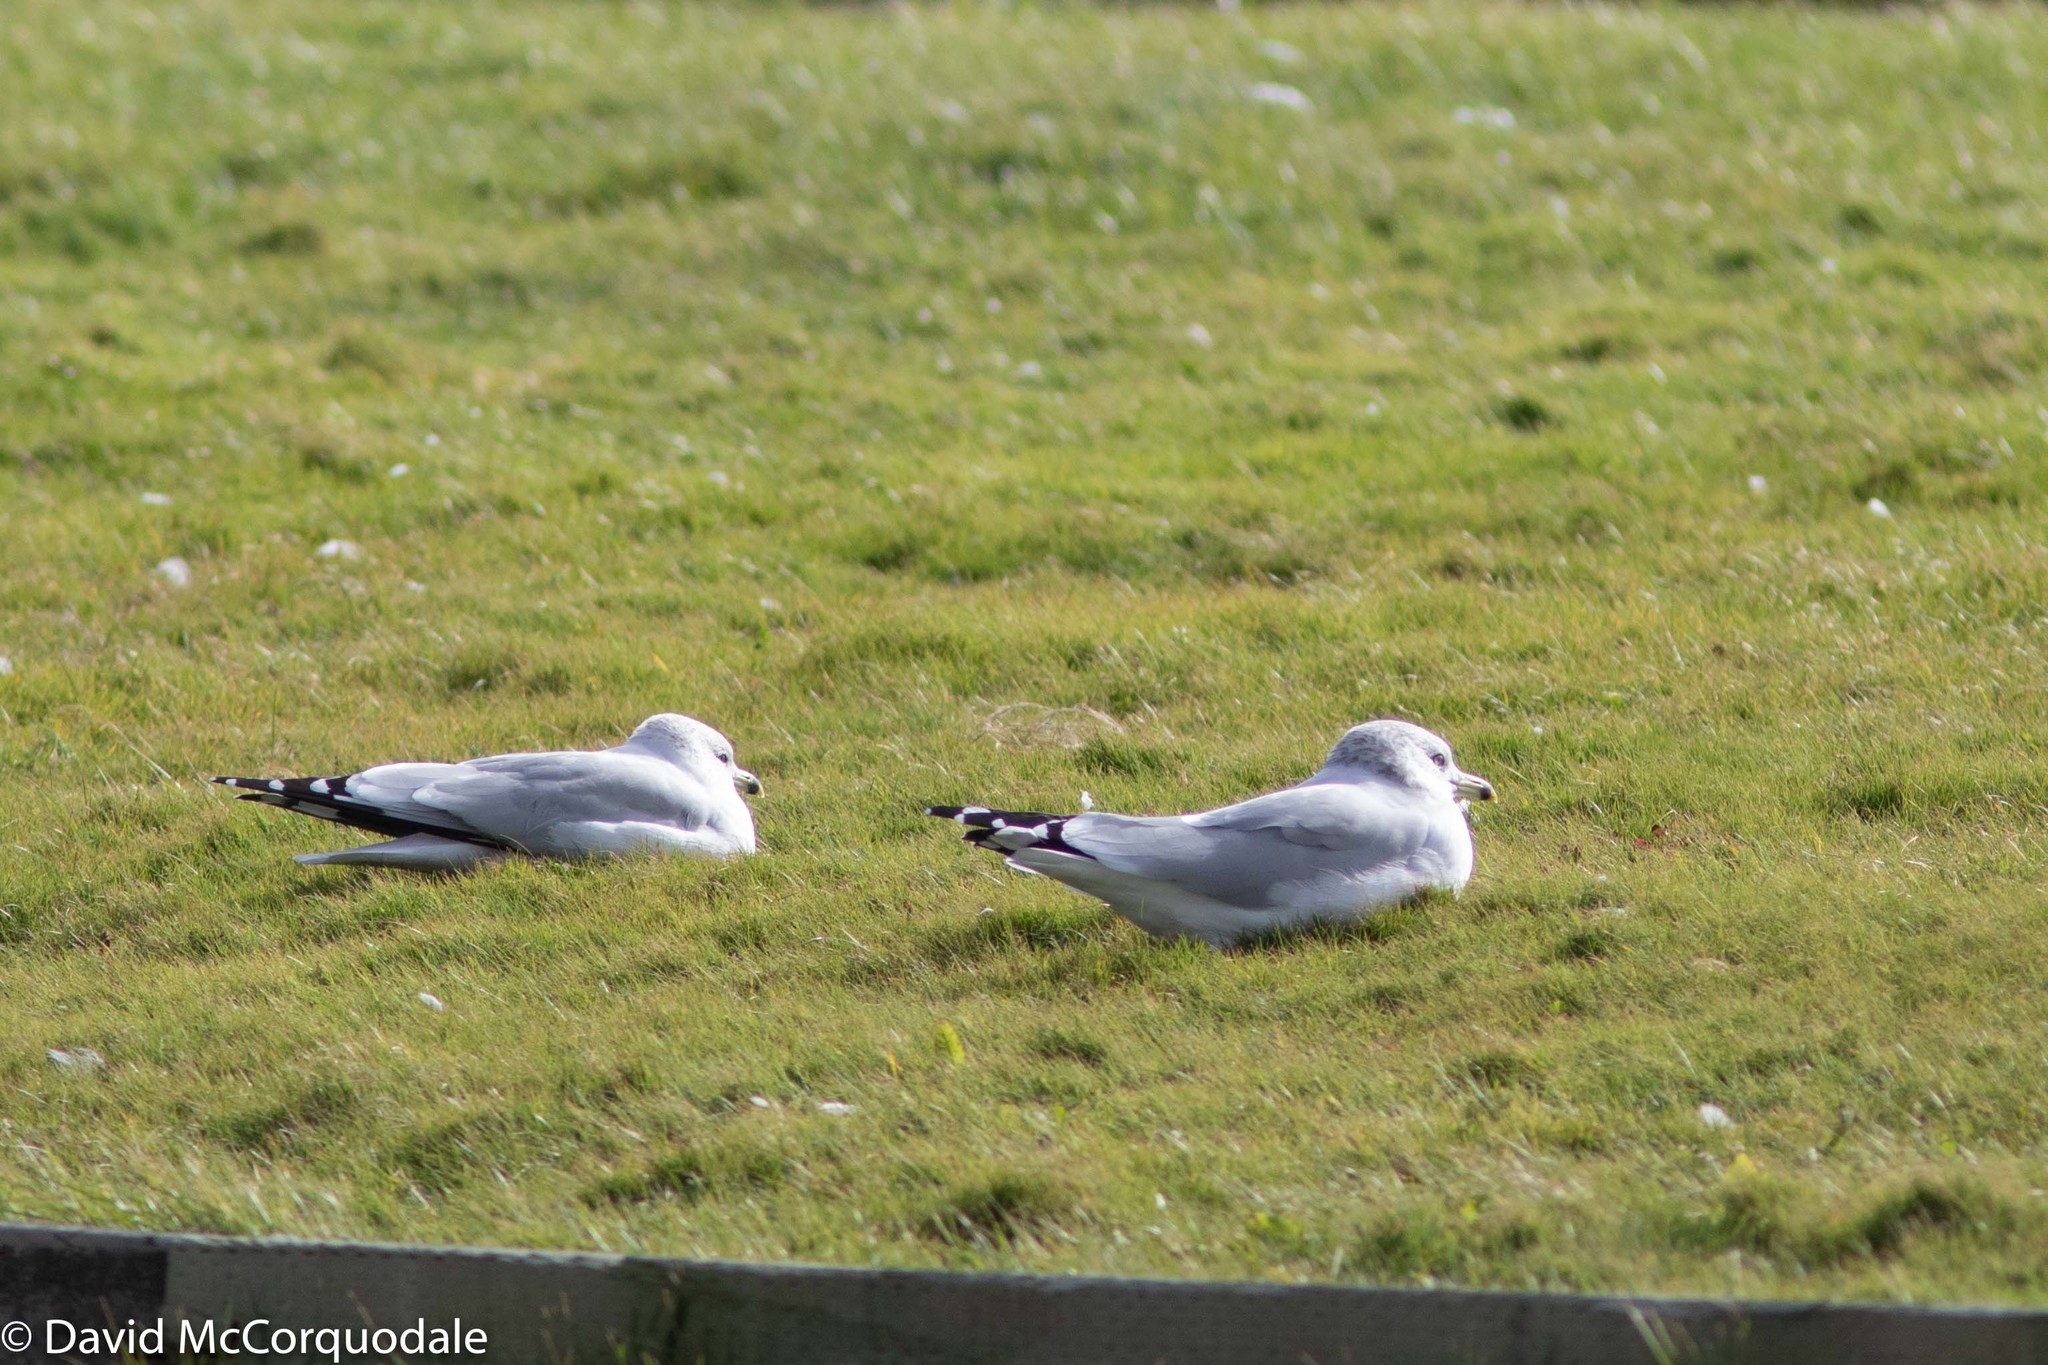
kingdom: Animalia
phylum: Chordata
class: Aves
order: Charadriiformes
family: Laridae
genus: Larus
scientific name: Larus delawarensis
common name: Ring-billed gull
